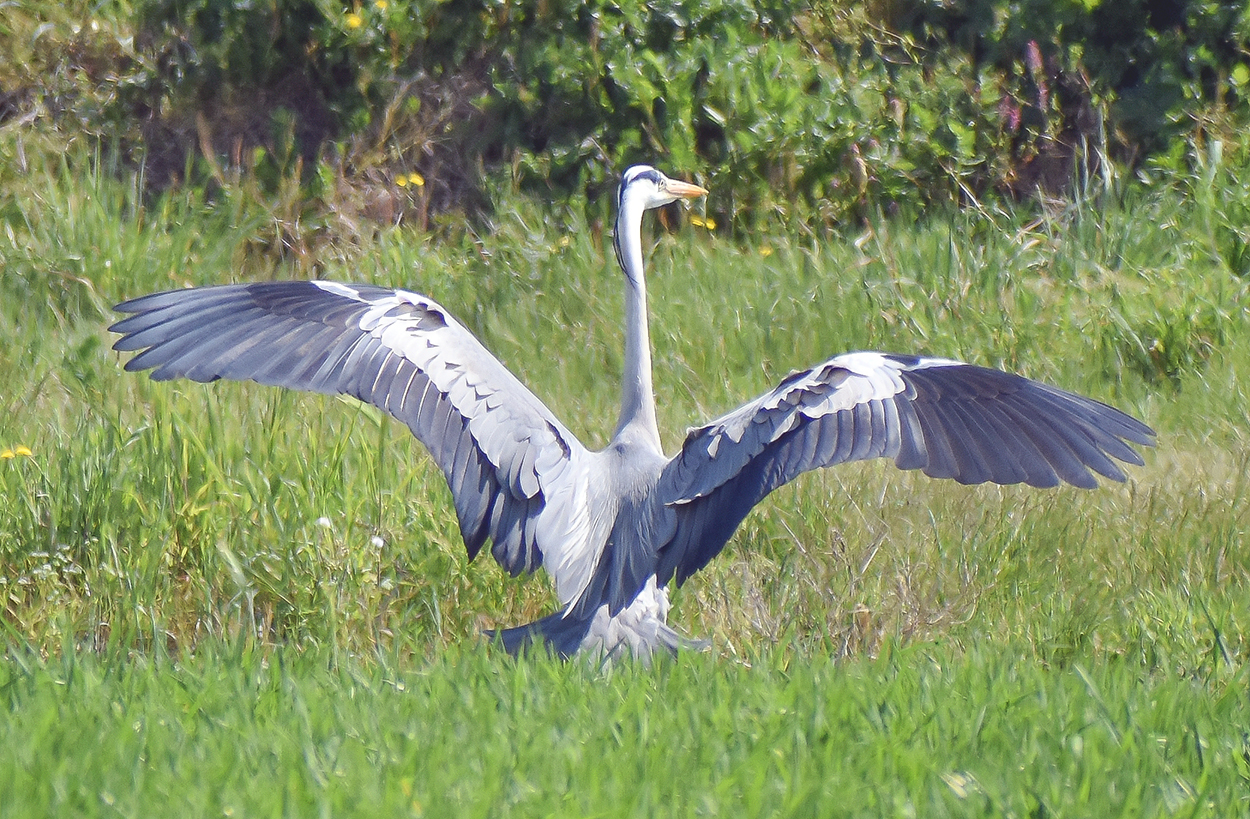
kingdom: Animalia
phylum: Chordata
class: Aves
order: Pelecaniformes
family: Ardeidae
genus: Ardea
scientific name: Ardea cinerea
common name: Grey heron
